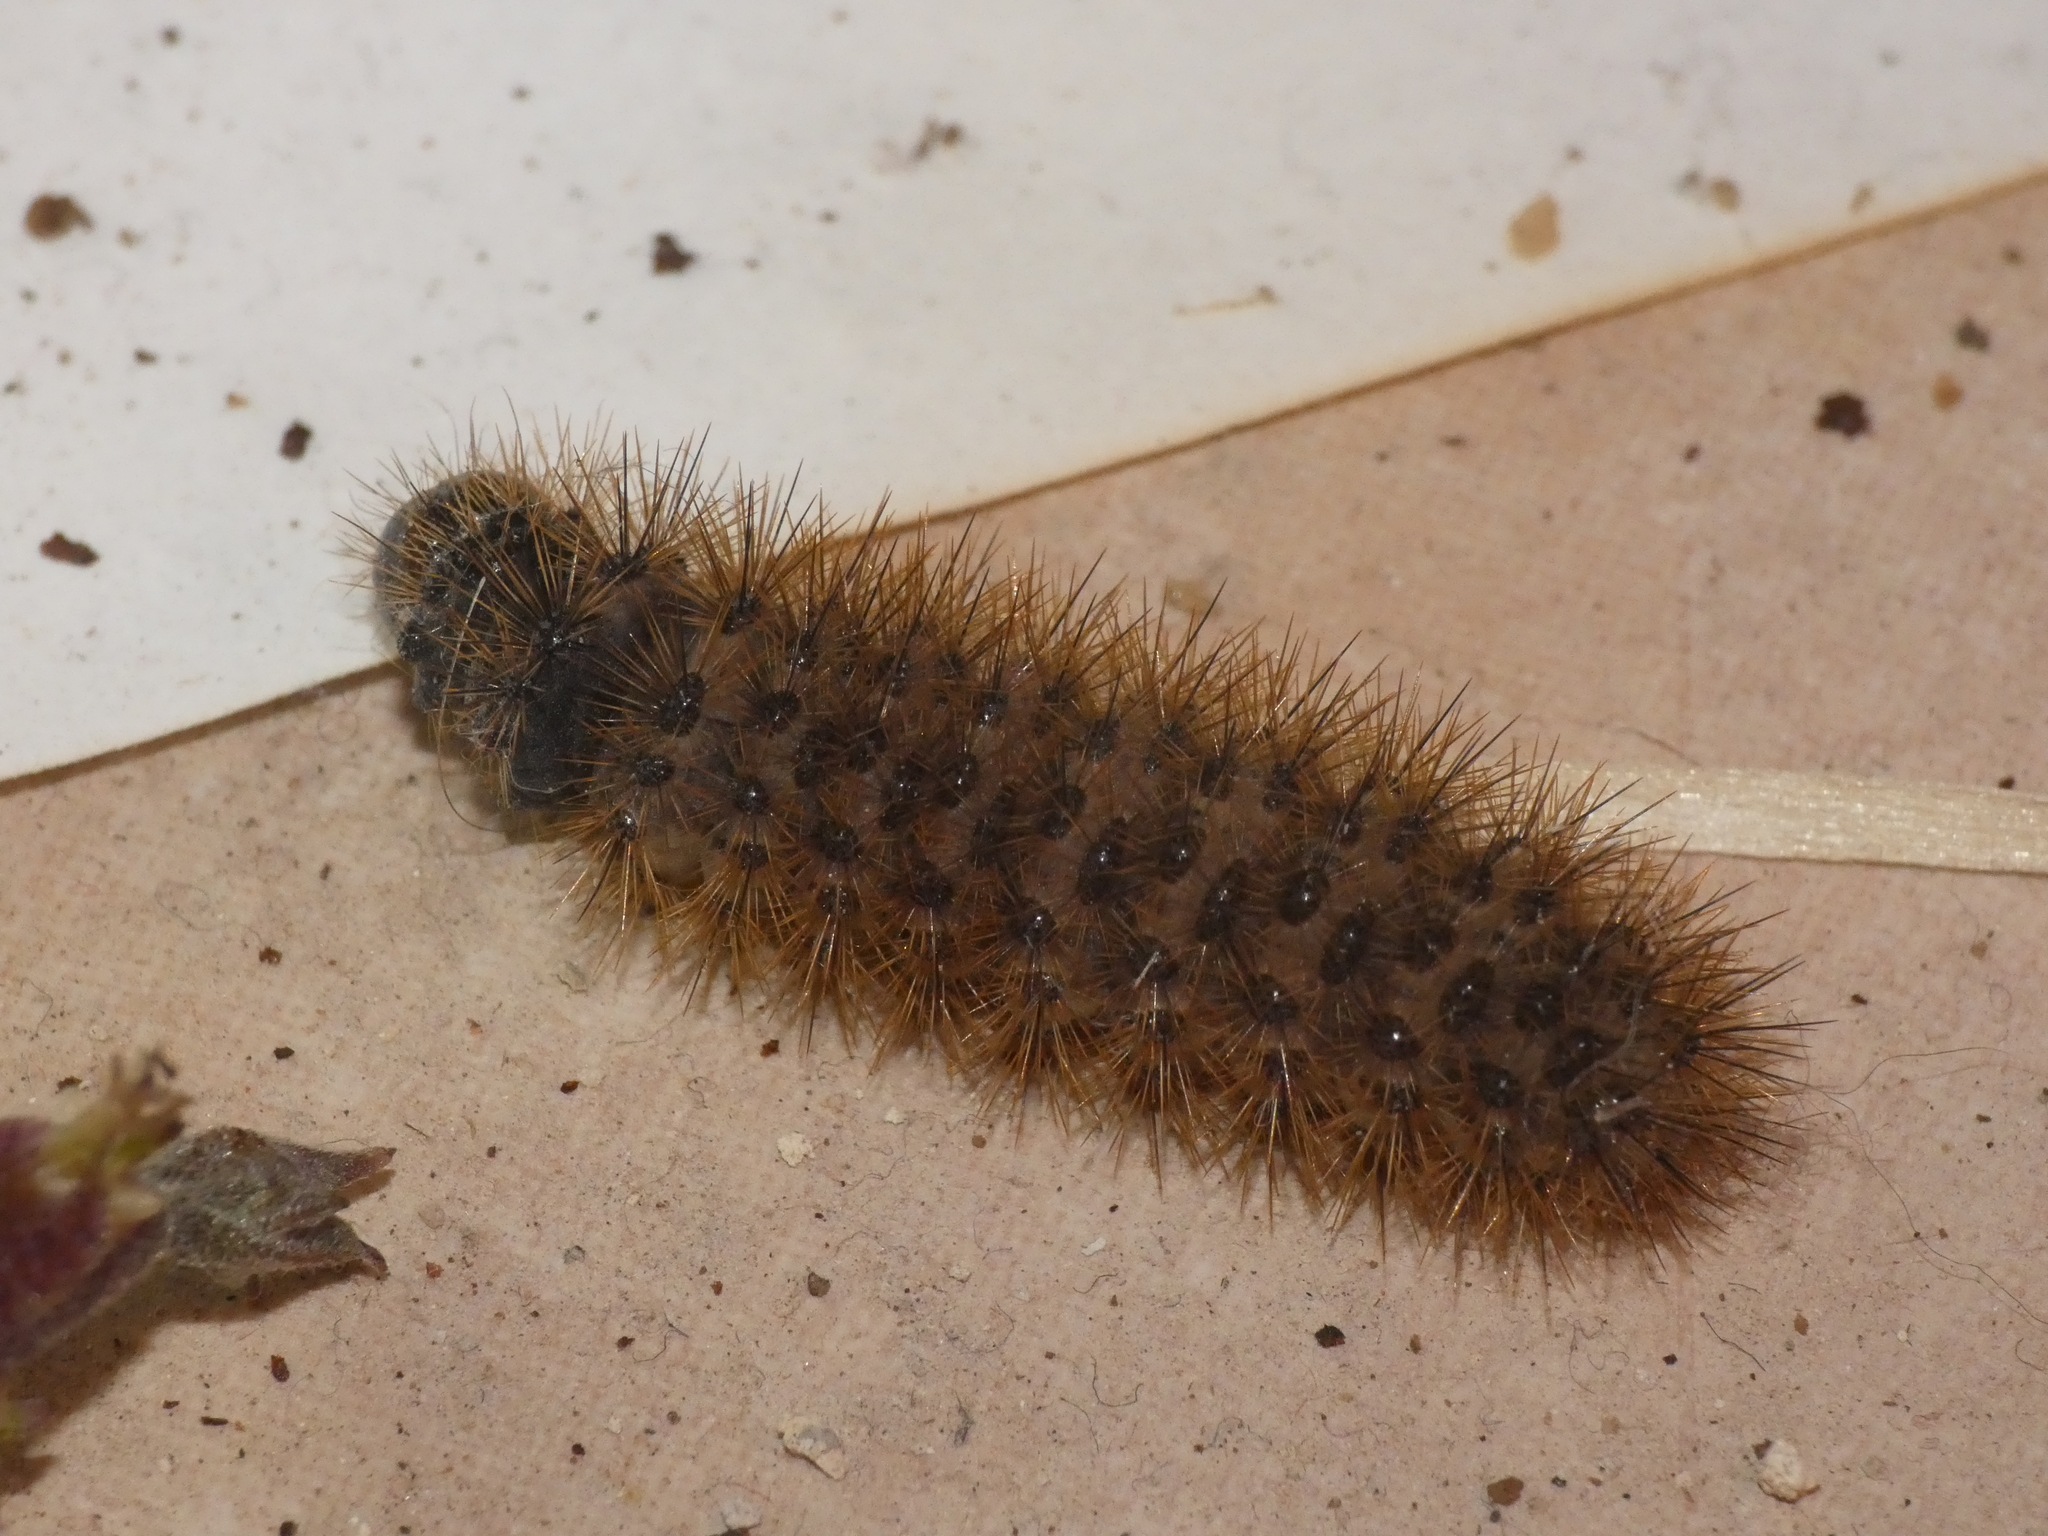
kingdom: Animalia
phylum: Arthropoda
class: Insecta
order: Lepidoptera
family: Erebidae
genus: Cymbalophora
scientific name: Cymbalophora pudica
